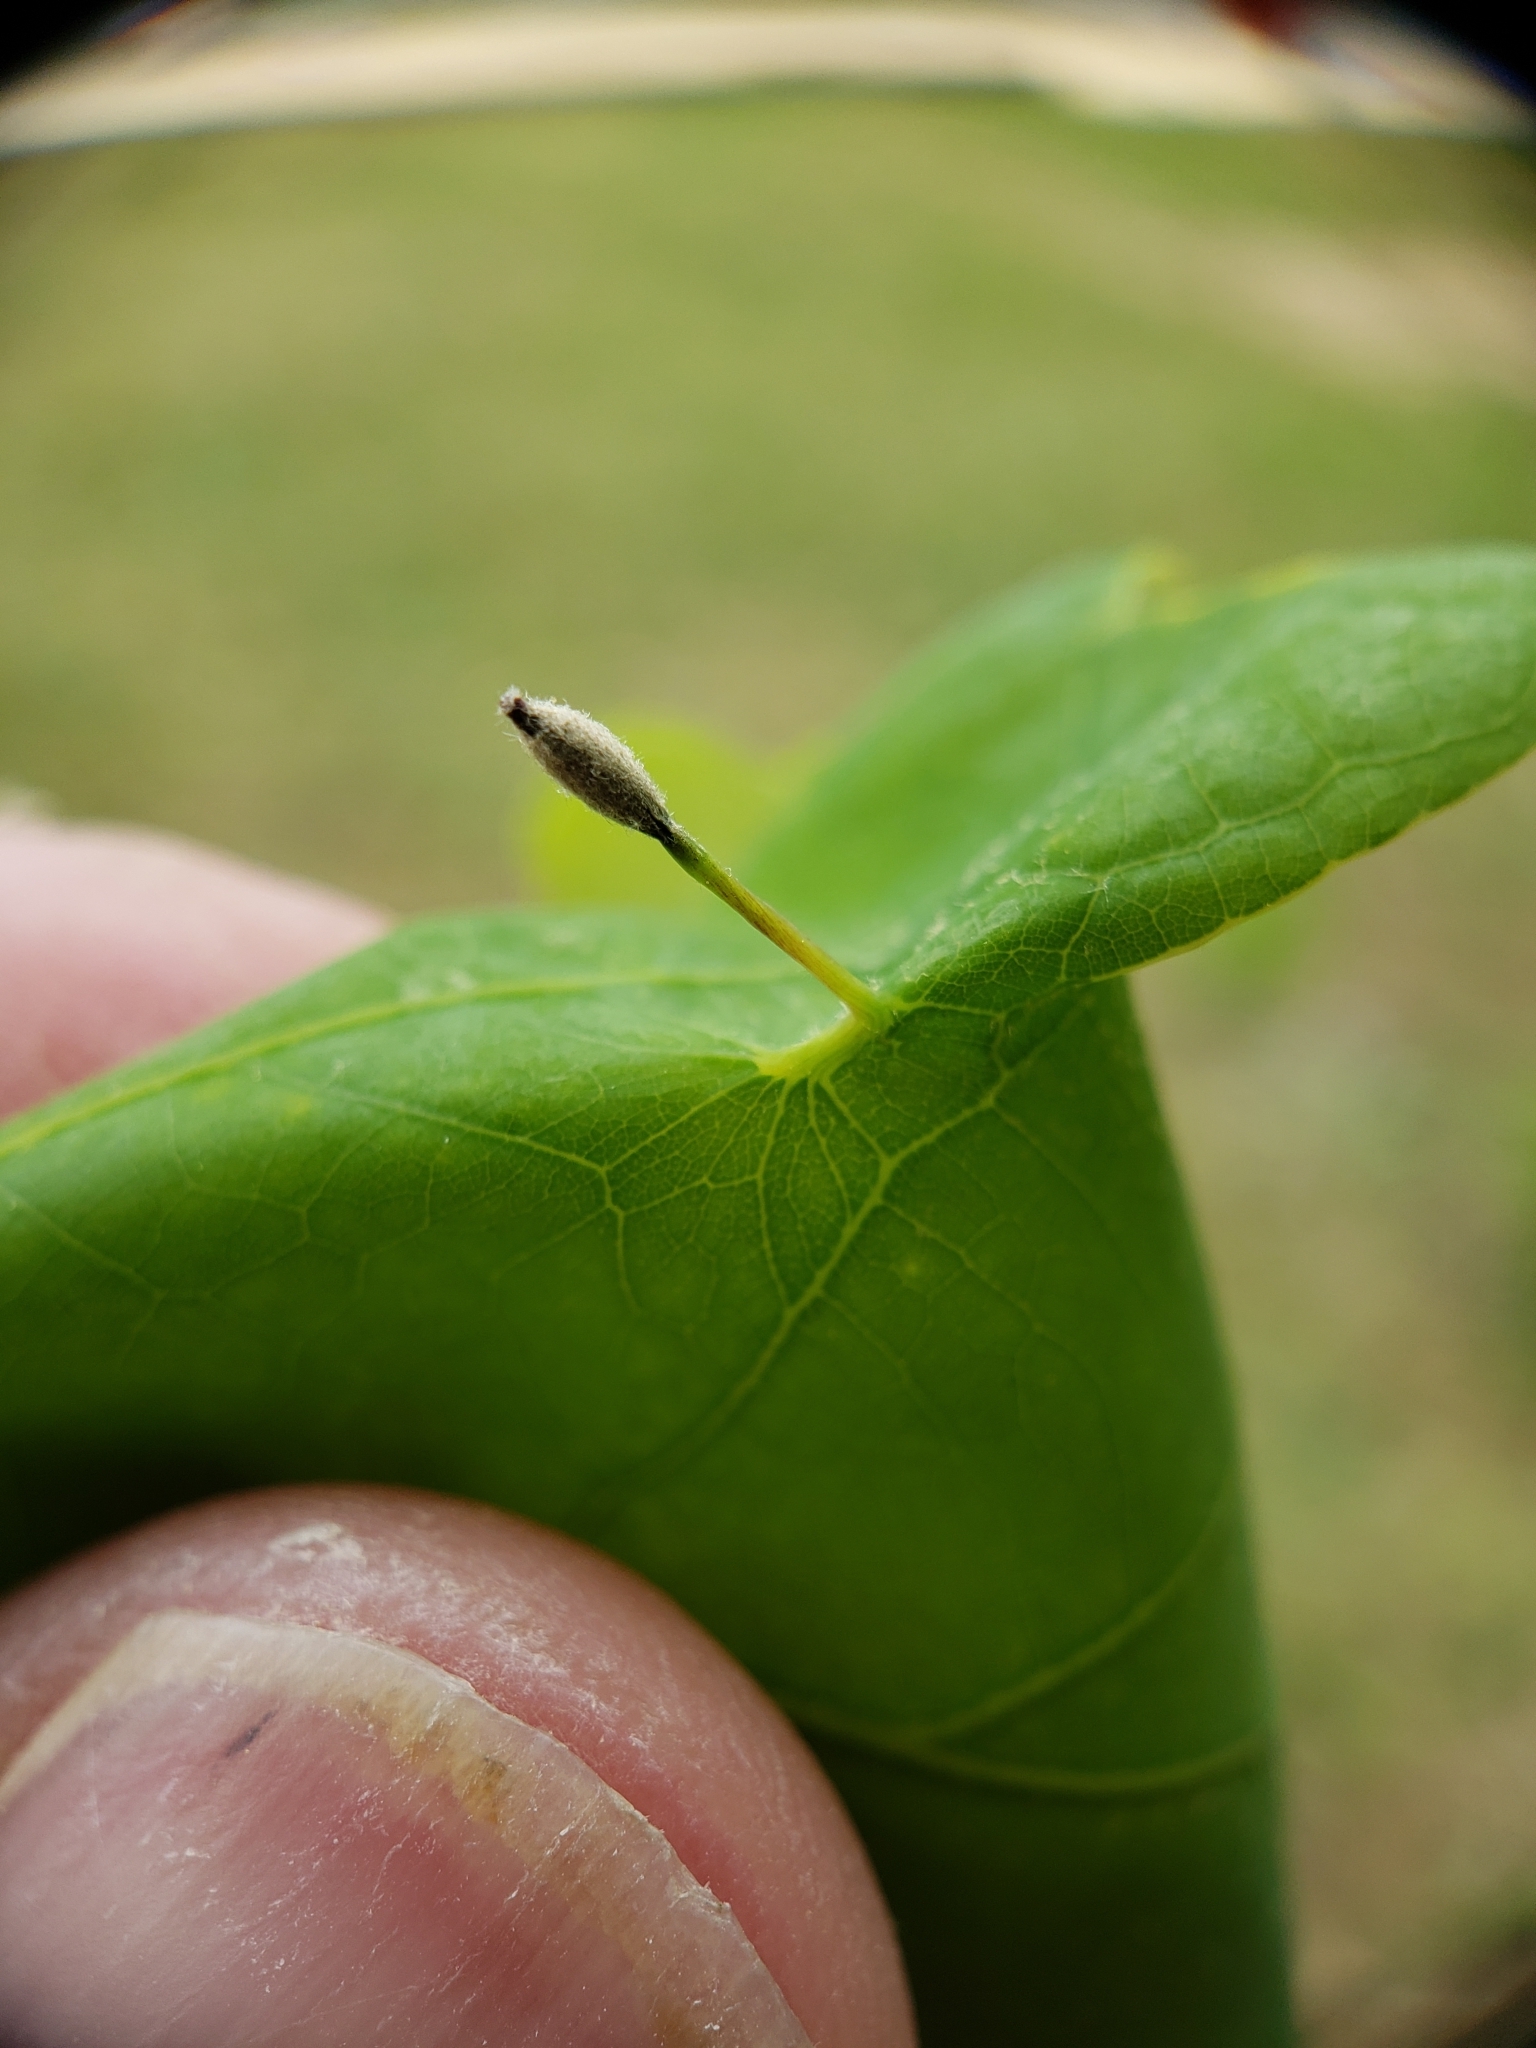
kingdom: Animalia
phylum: Arthropoda
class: Insecta
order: Hymenoptera
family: Cynipidae
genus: Andricus
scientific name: Andricus
